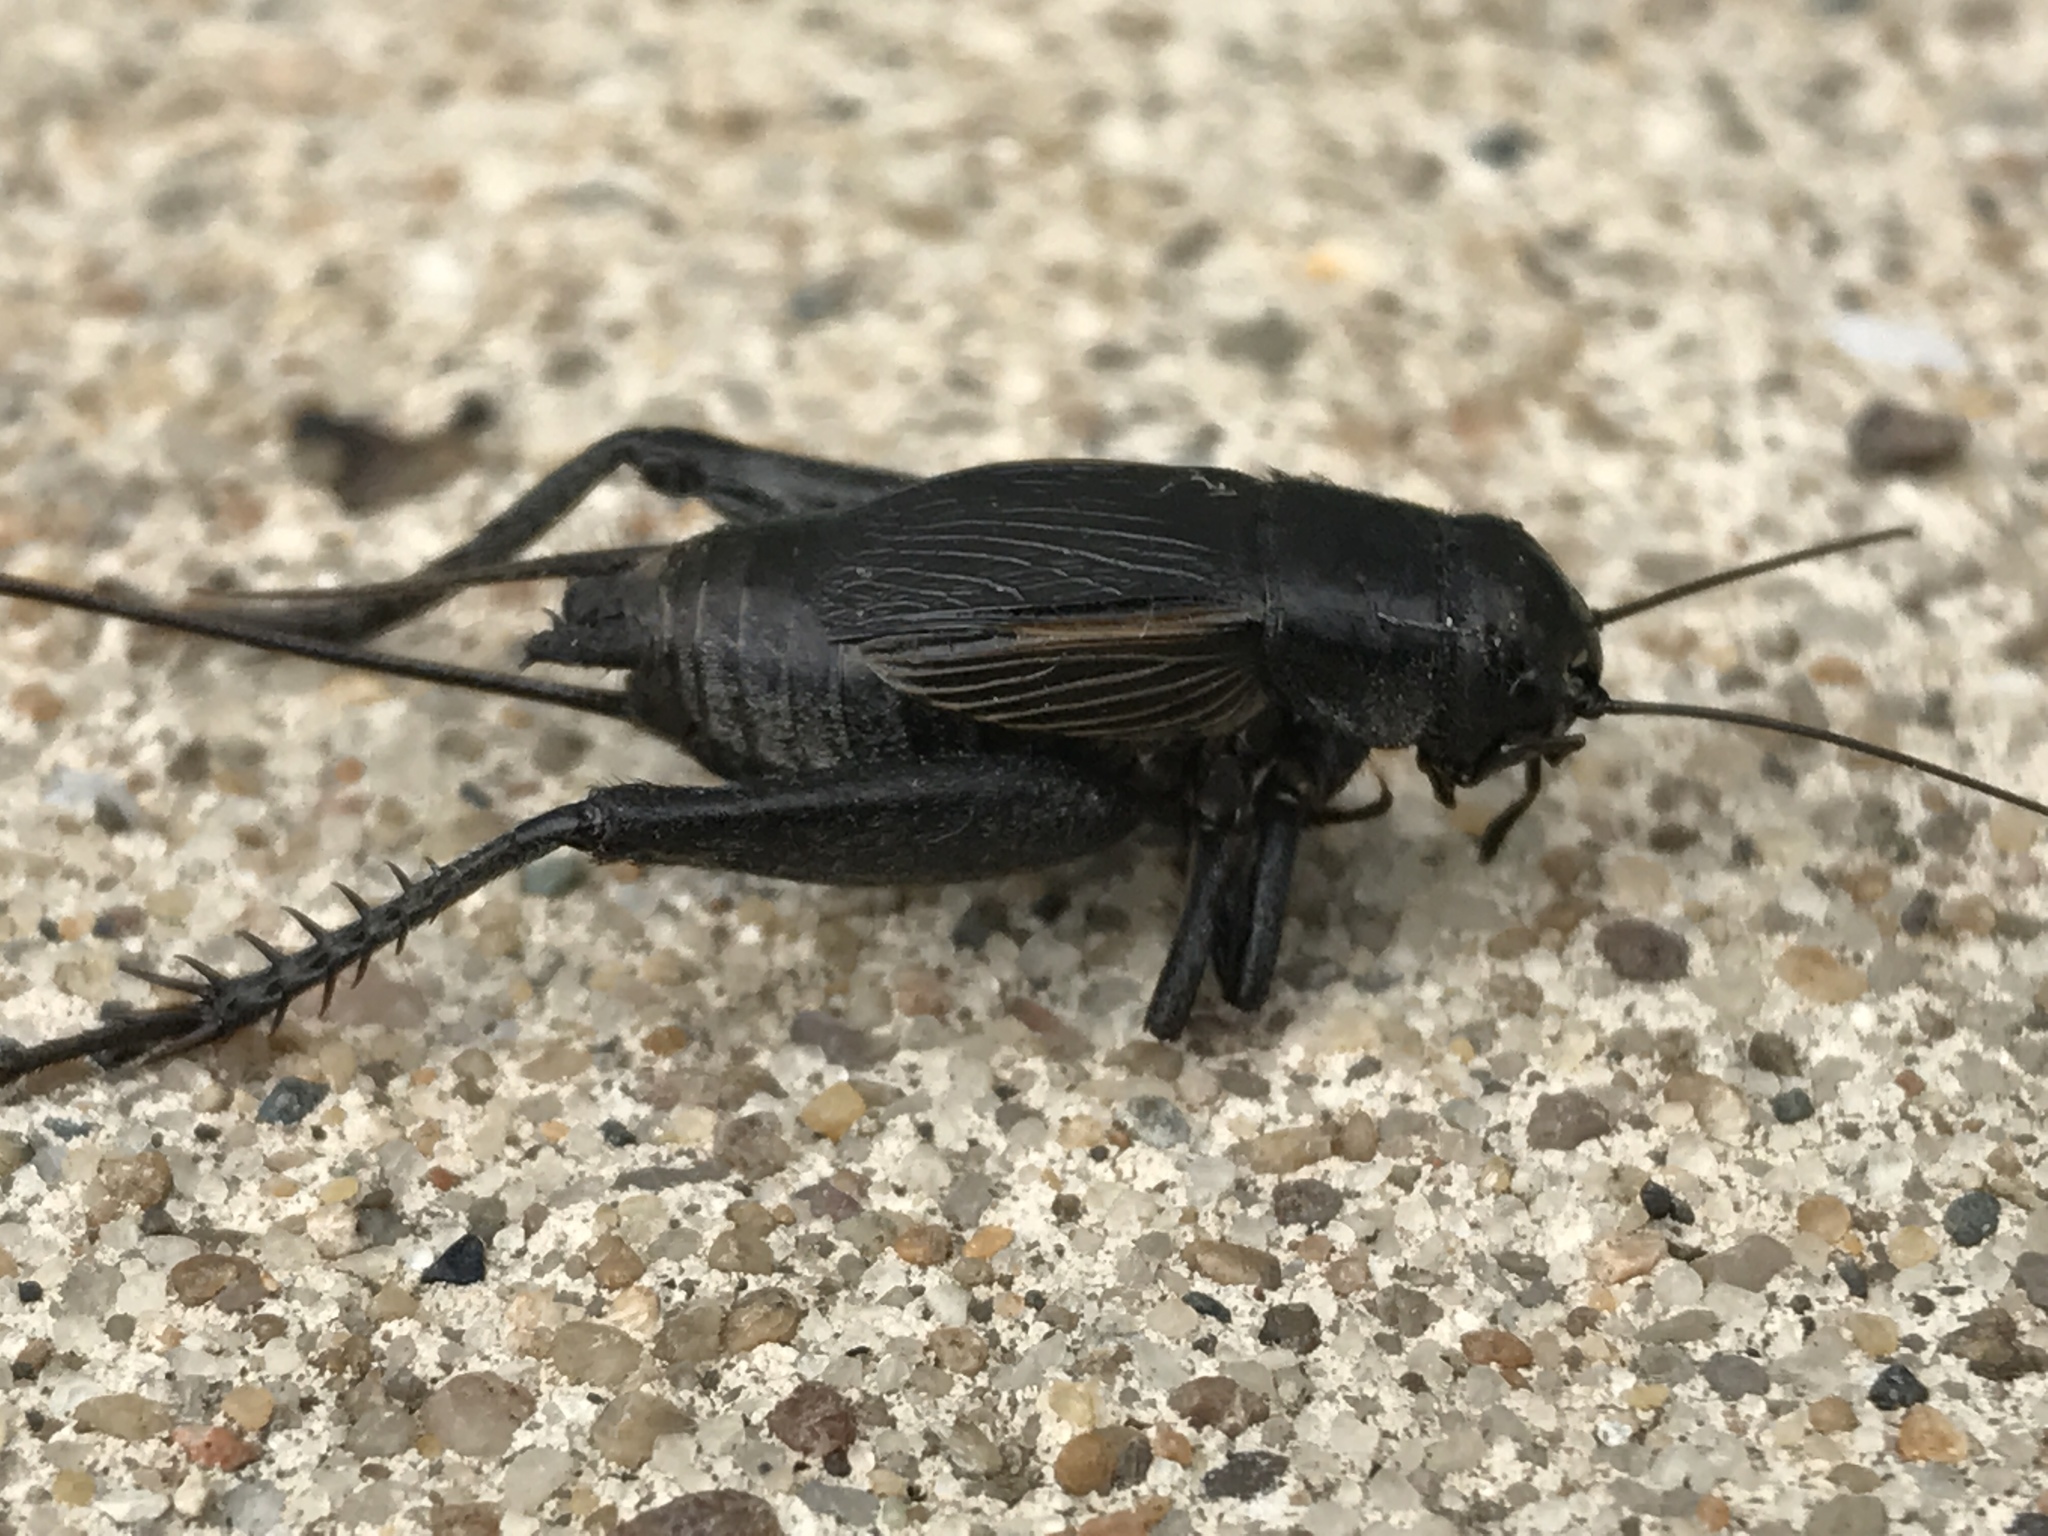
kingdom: Animalia
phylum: Arthropoda
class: Insecta
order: Orthoptera
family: Gryllidae
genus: Gryllus
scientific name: Gryllus pennsylvanicus
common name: Fall field cricket
